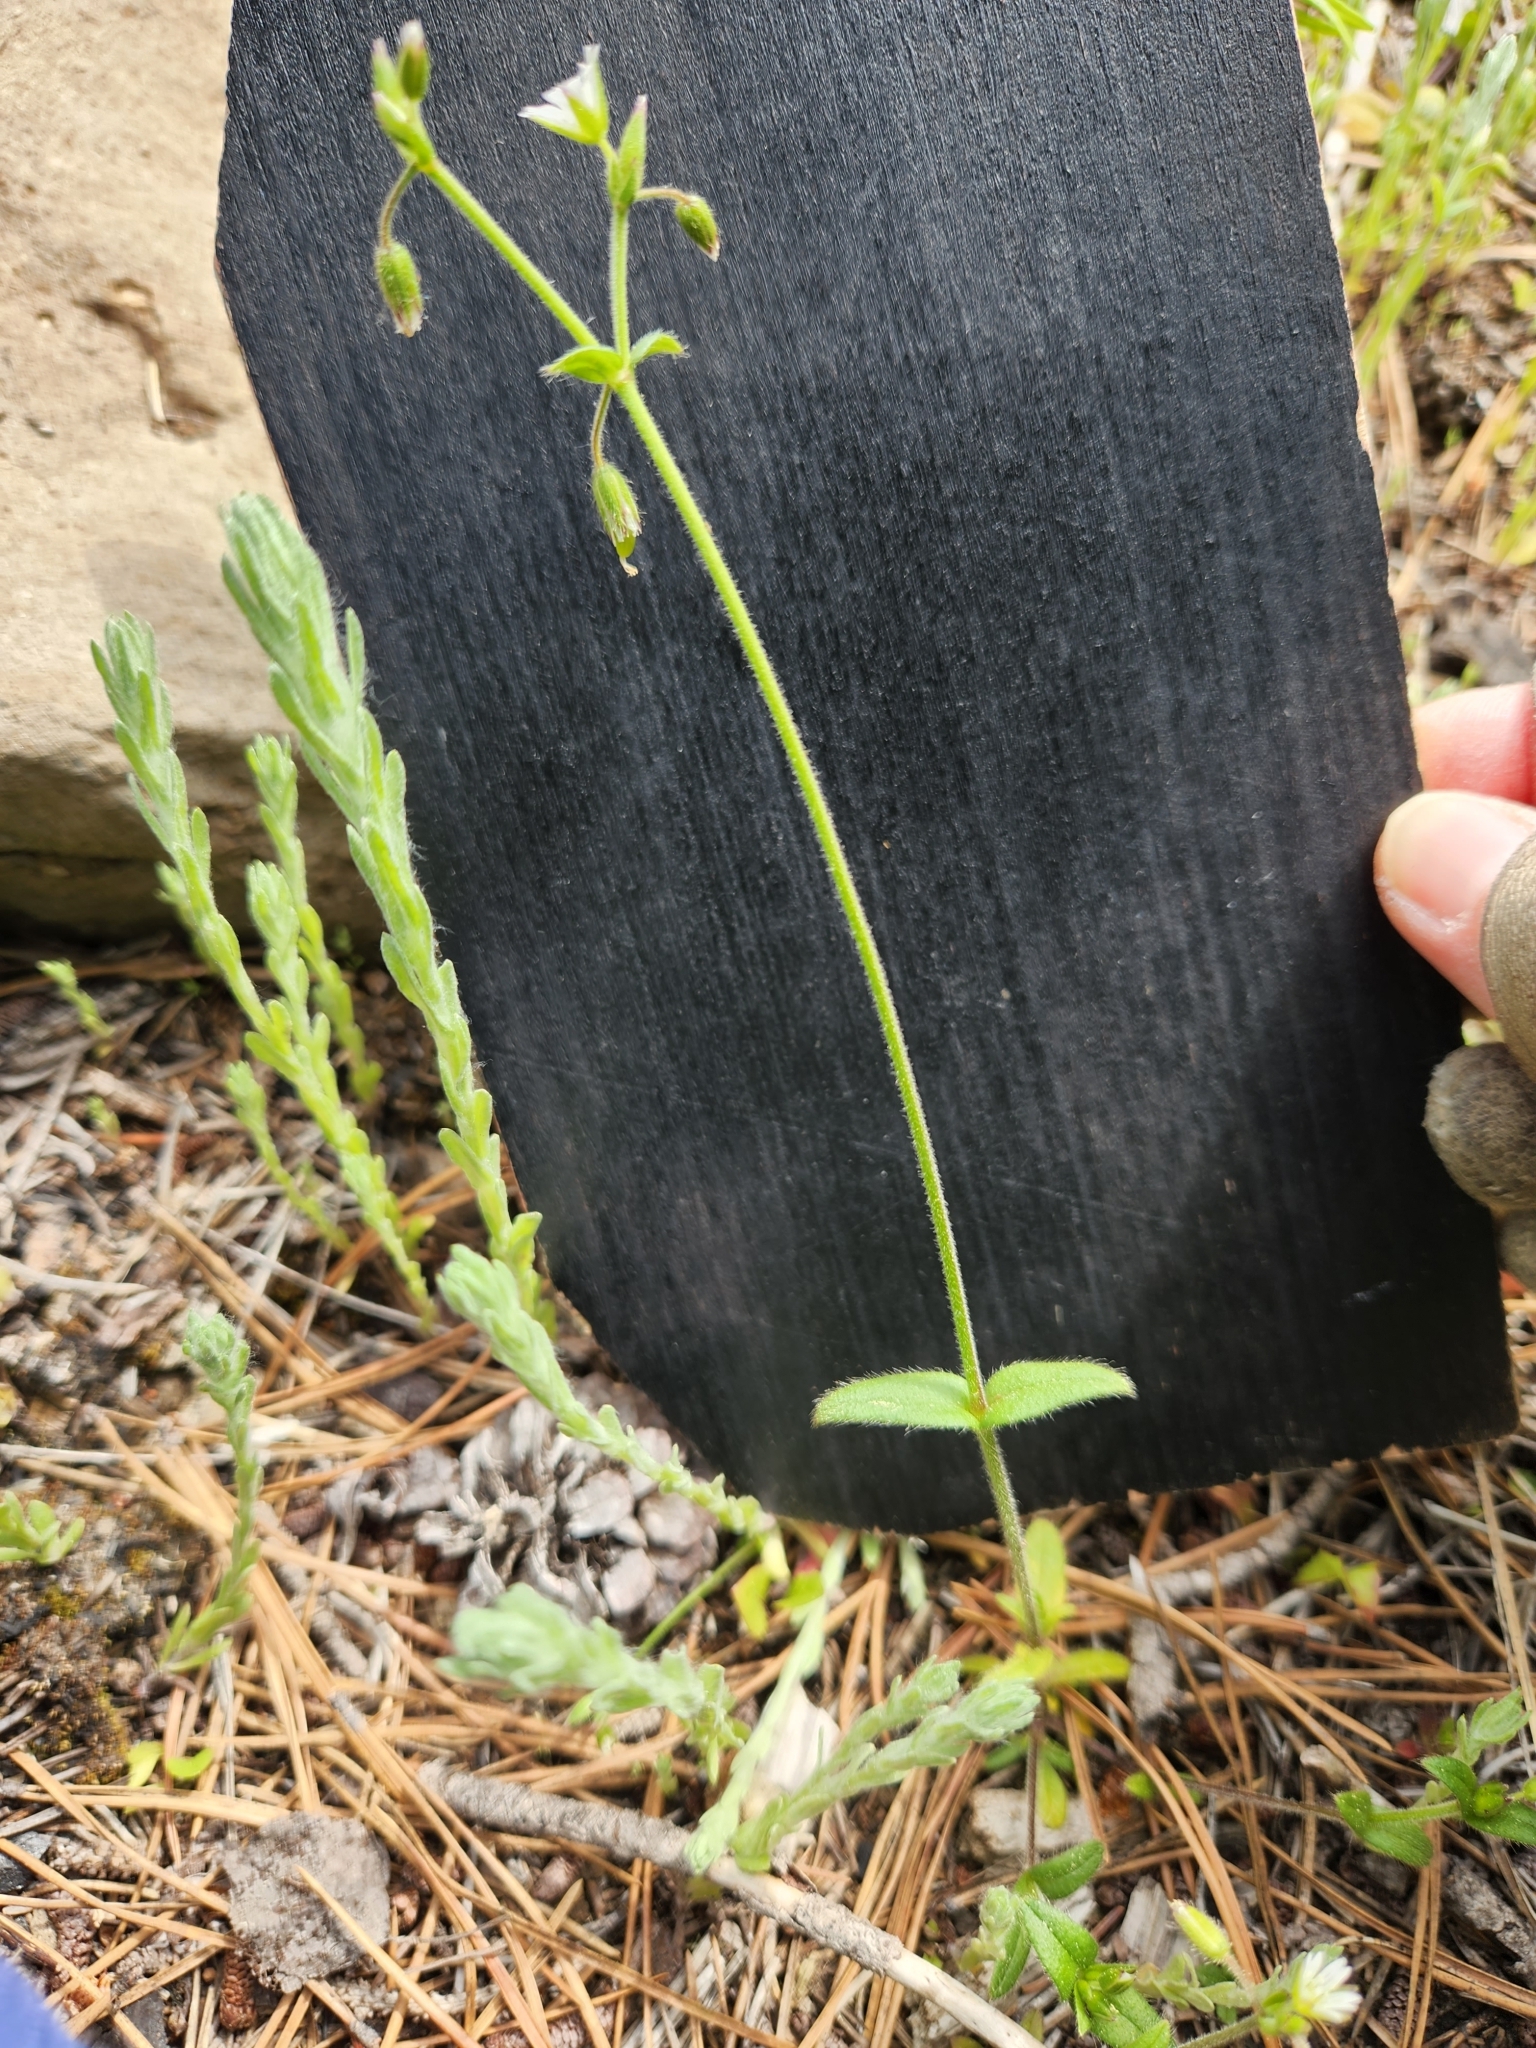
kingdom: Plantae
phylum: Tracheophyta
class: Magnoliopsida
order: Caryophyllales
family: Caryophyllaceae
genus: Cerastium
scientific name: Cerastium fontanum
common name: Common mouse-ear
